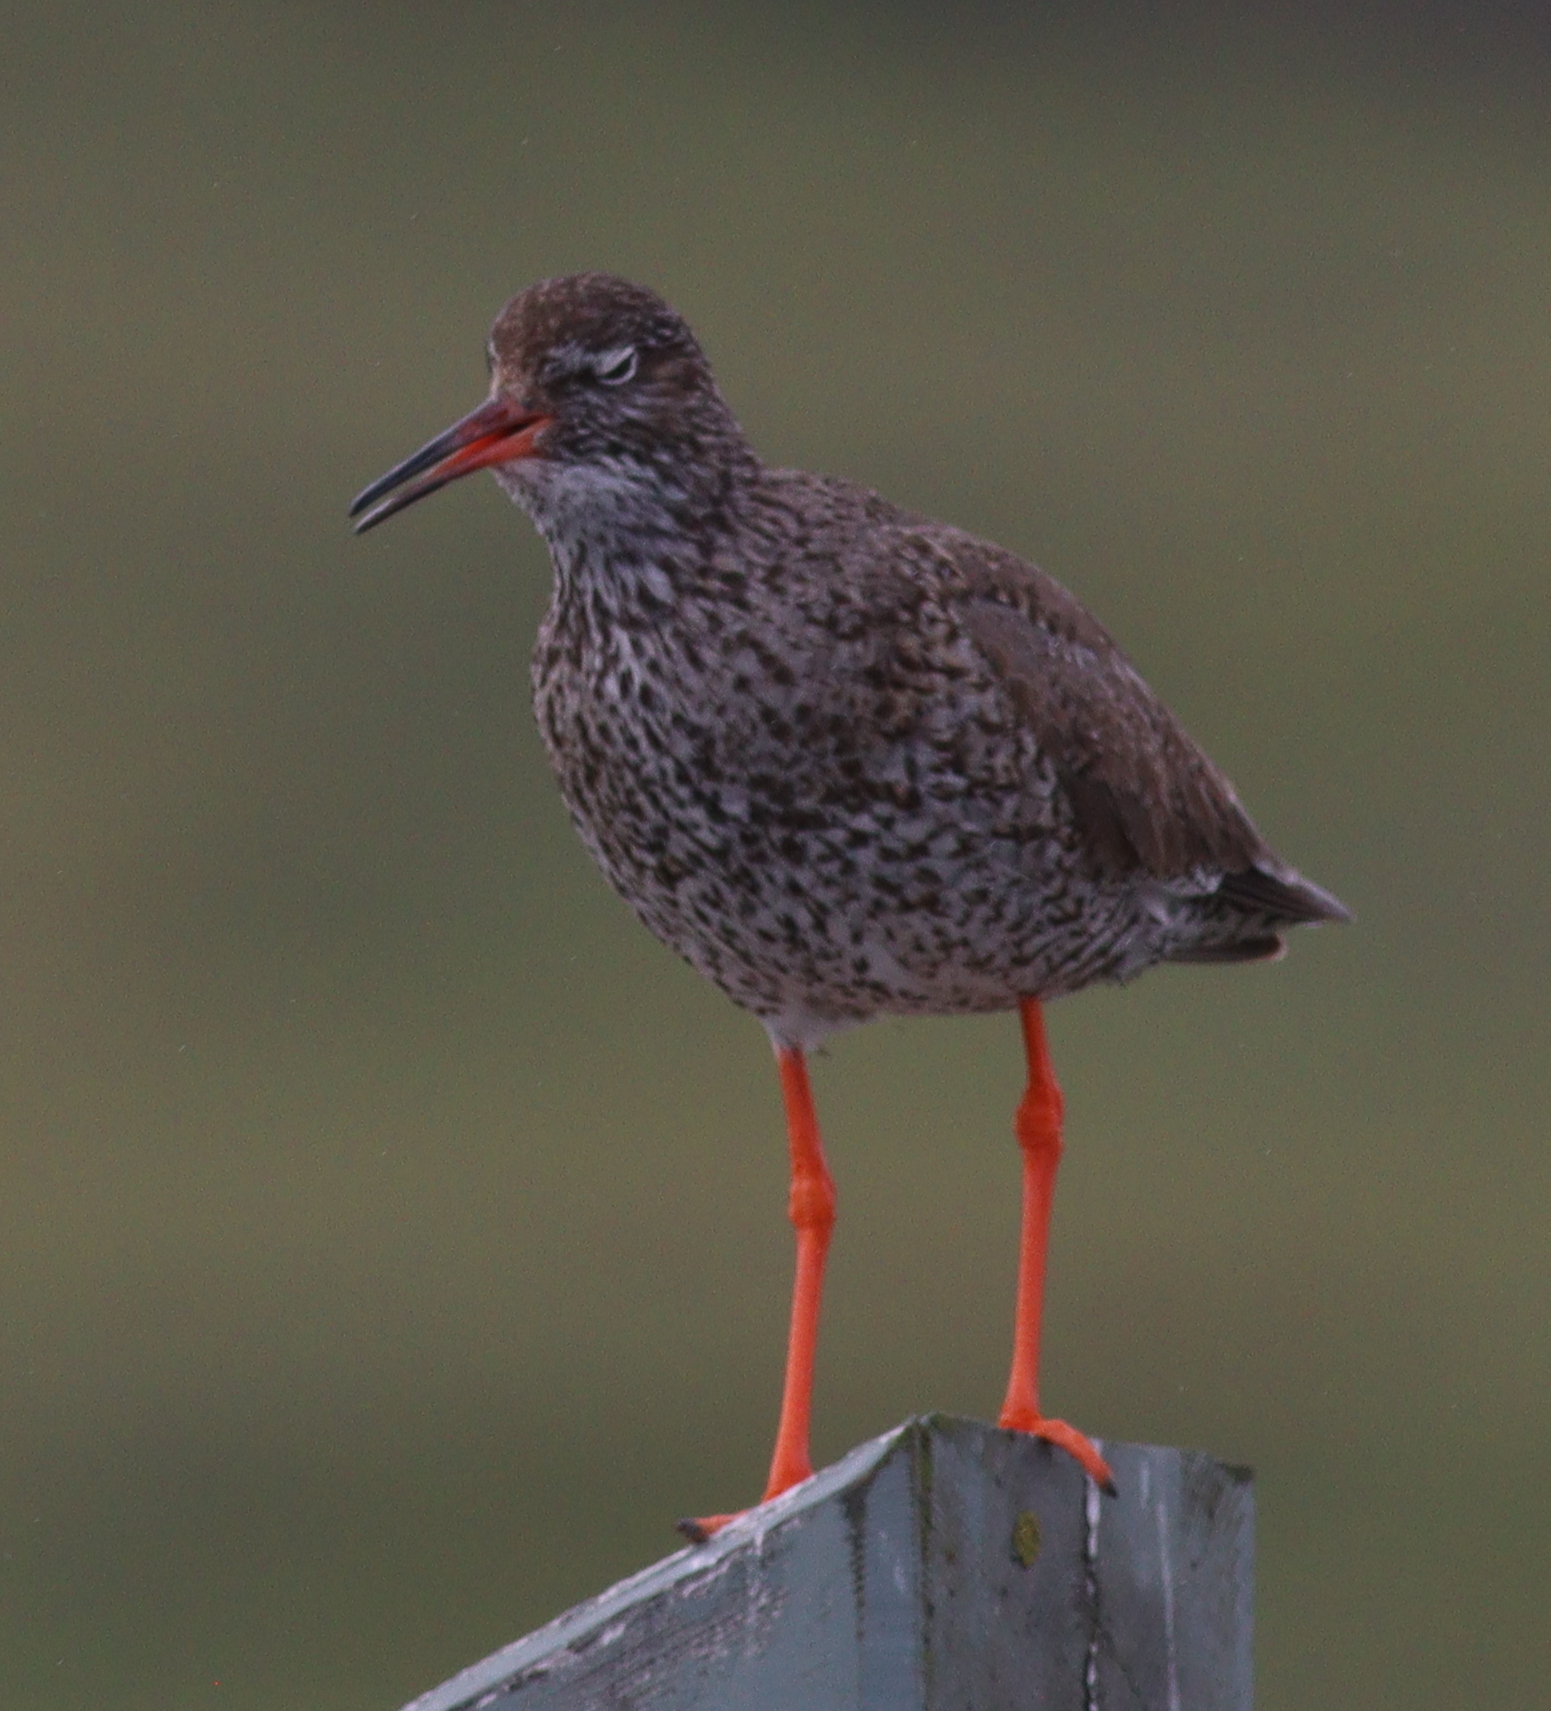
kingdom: Animalia
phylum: Chordata
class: Aves
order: Charadriiformes
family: Scolopacidae
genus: Tringa
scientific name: Tringa totanus
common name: Common redshank
